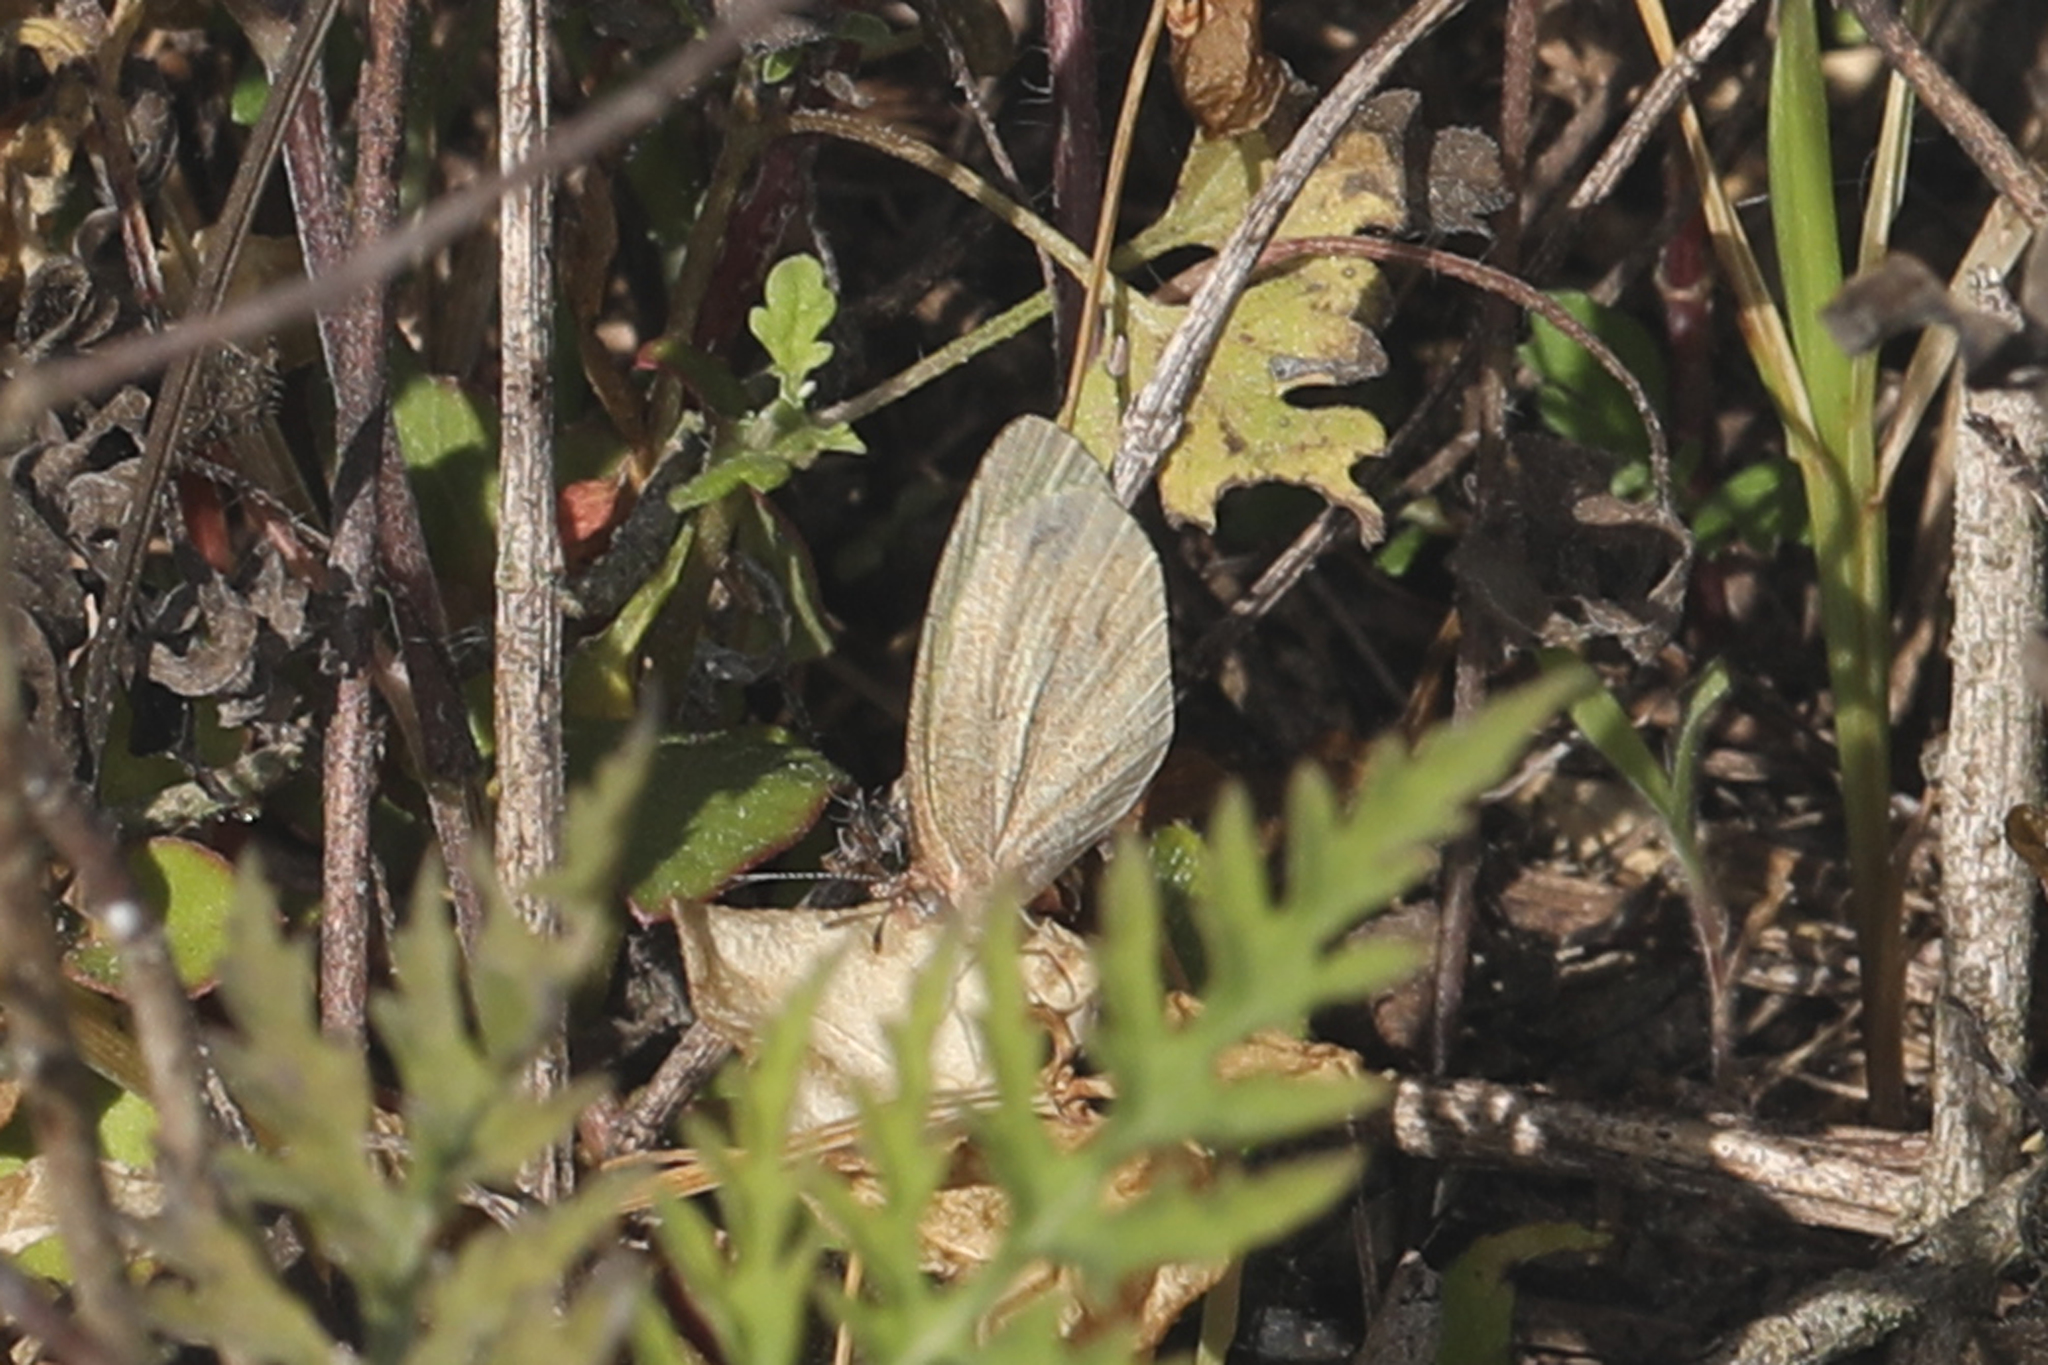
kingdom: Animalia
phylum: Arthropoda
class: Insecta
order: Lepidoptera
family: Pieridae
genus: Eurema
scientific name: Eurema daira
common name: Barred sulphur
